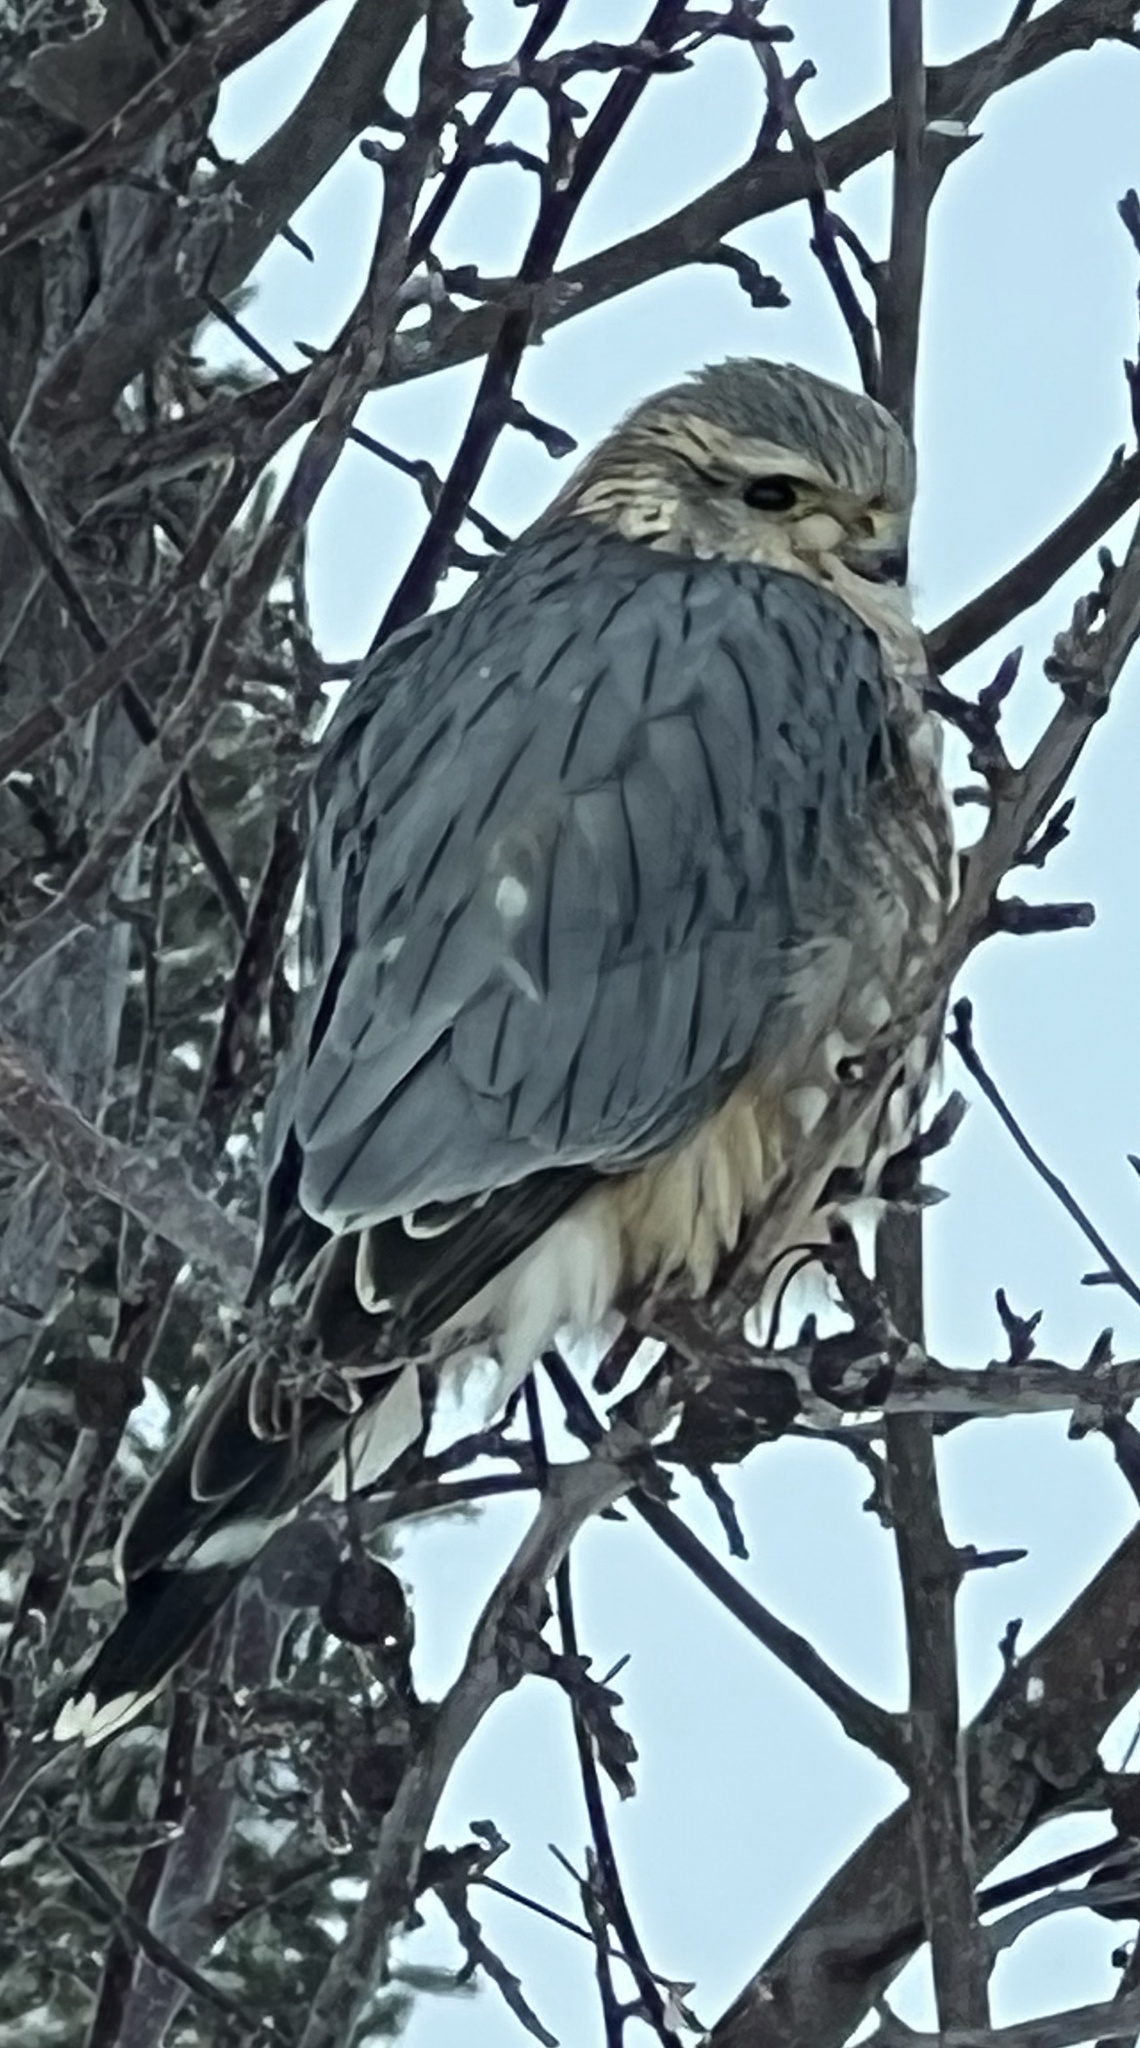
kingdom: Animalia
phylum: Chordata
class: Aves
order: Falconiformes
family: Falconidae
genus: Falco
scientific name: Falco columbarius
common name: Merlin
